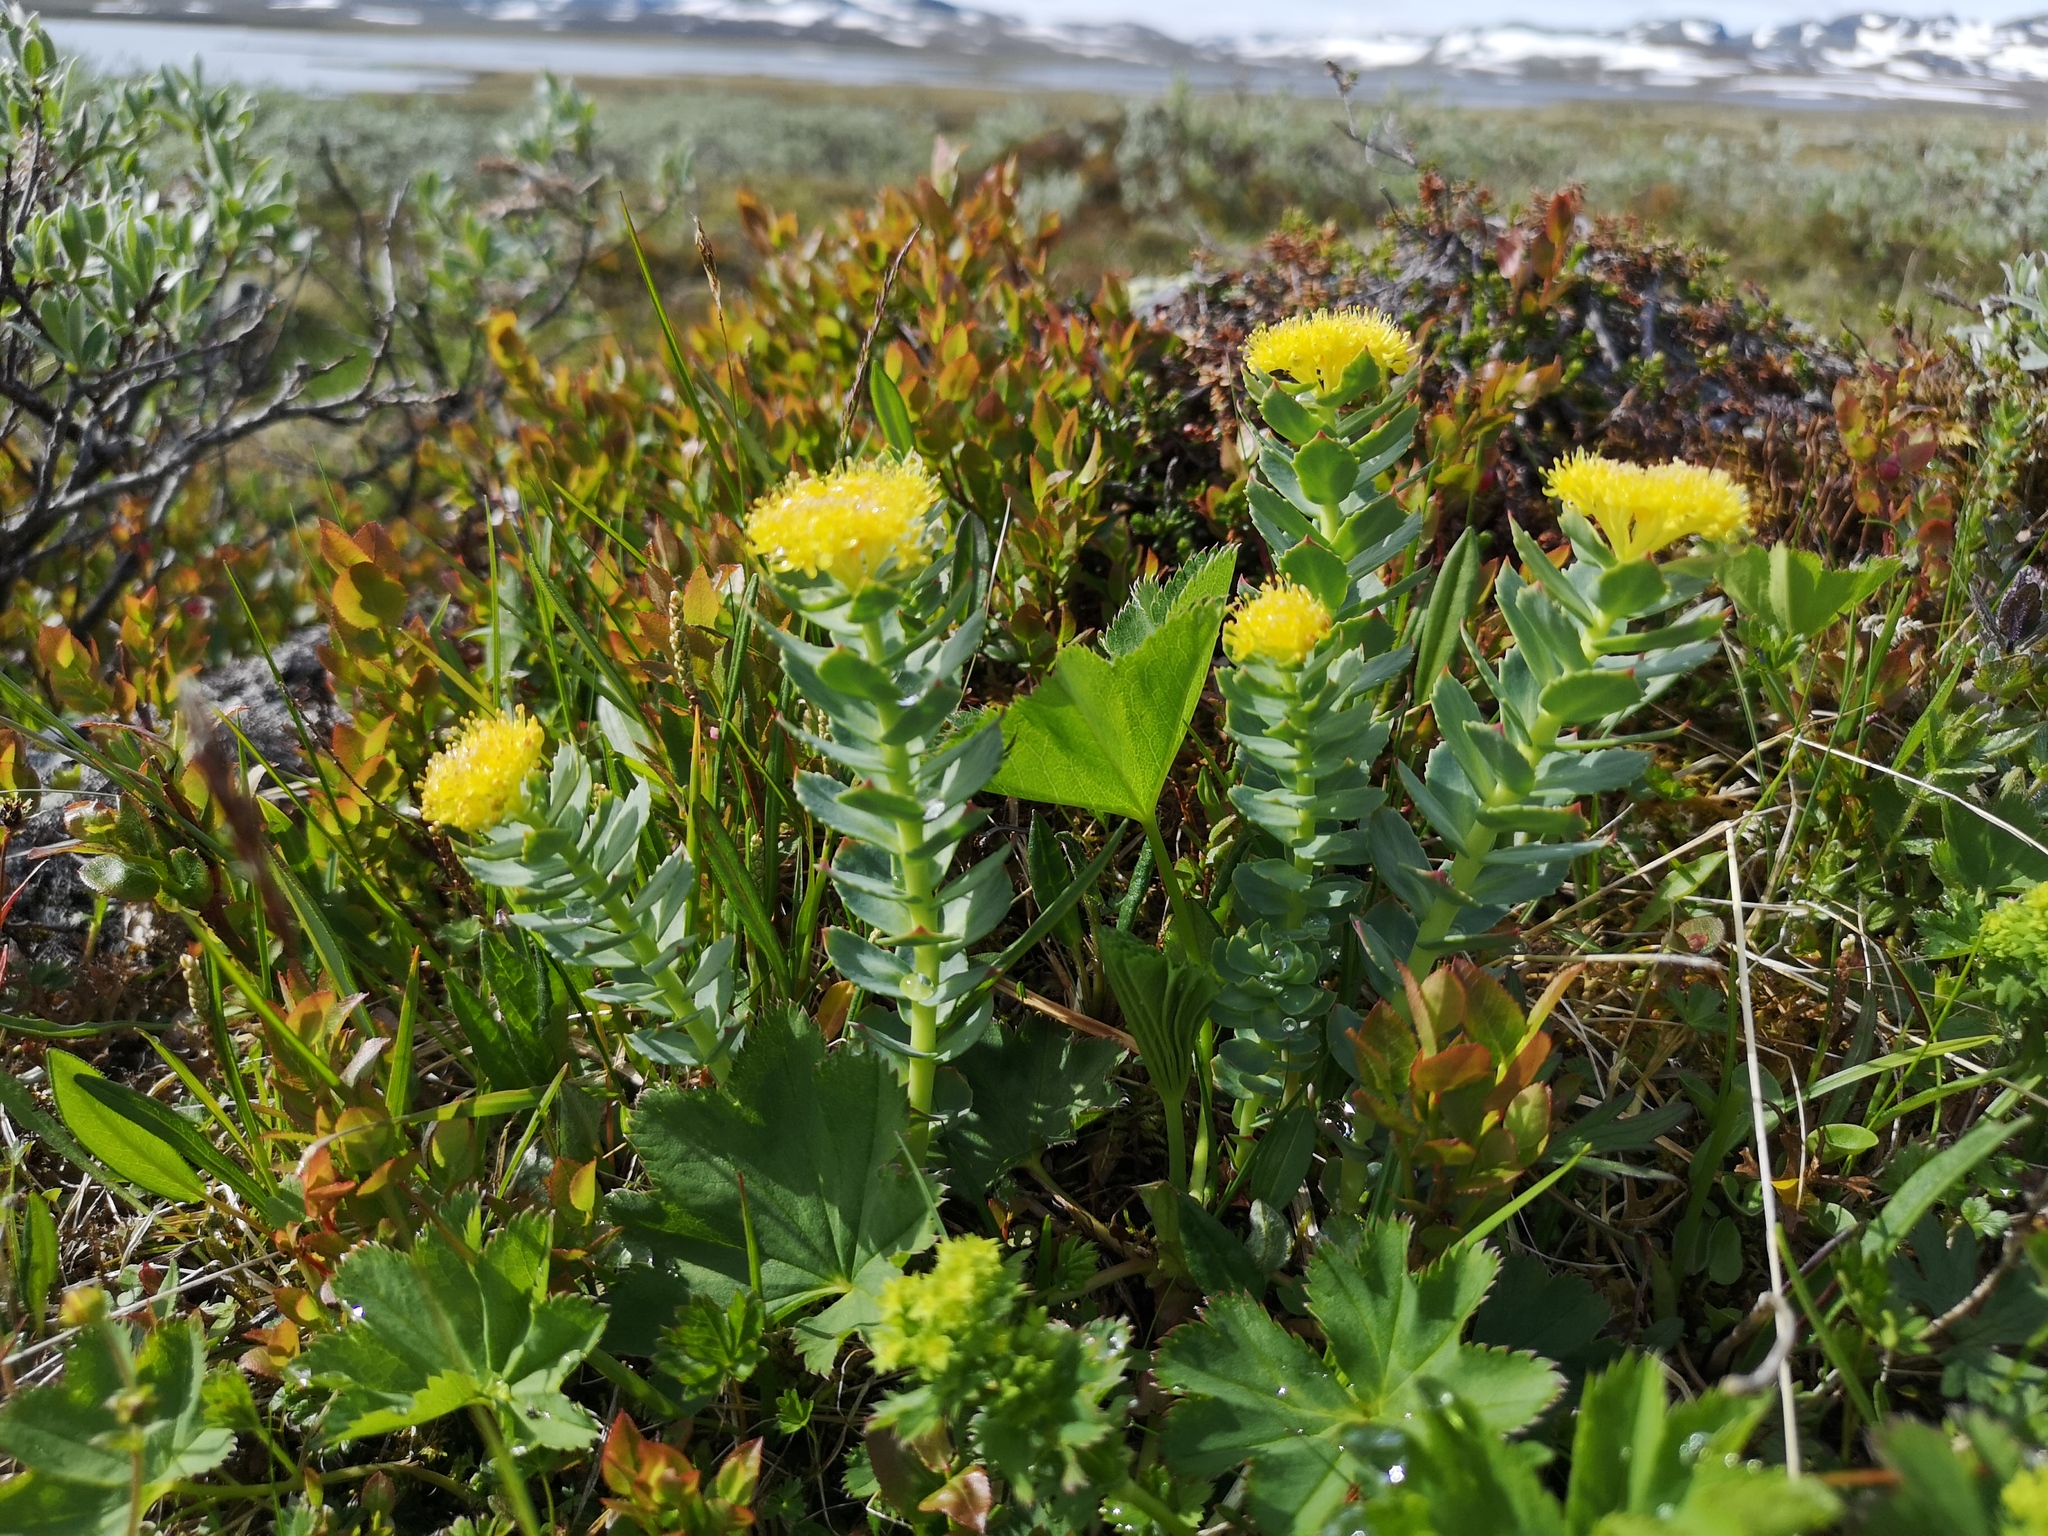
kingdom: Plantae
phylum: Tracheophyta
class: Magnoliopsida
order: Saxifragales
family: Crassulaceae
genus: Rhodiola
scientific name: Rhodiola rosea
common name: Roseroot
